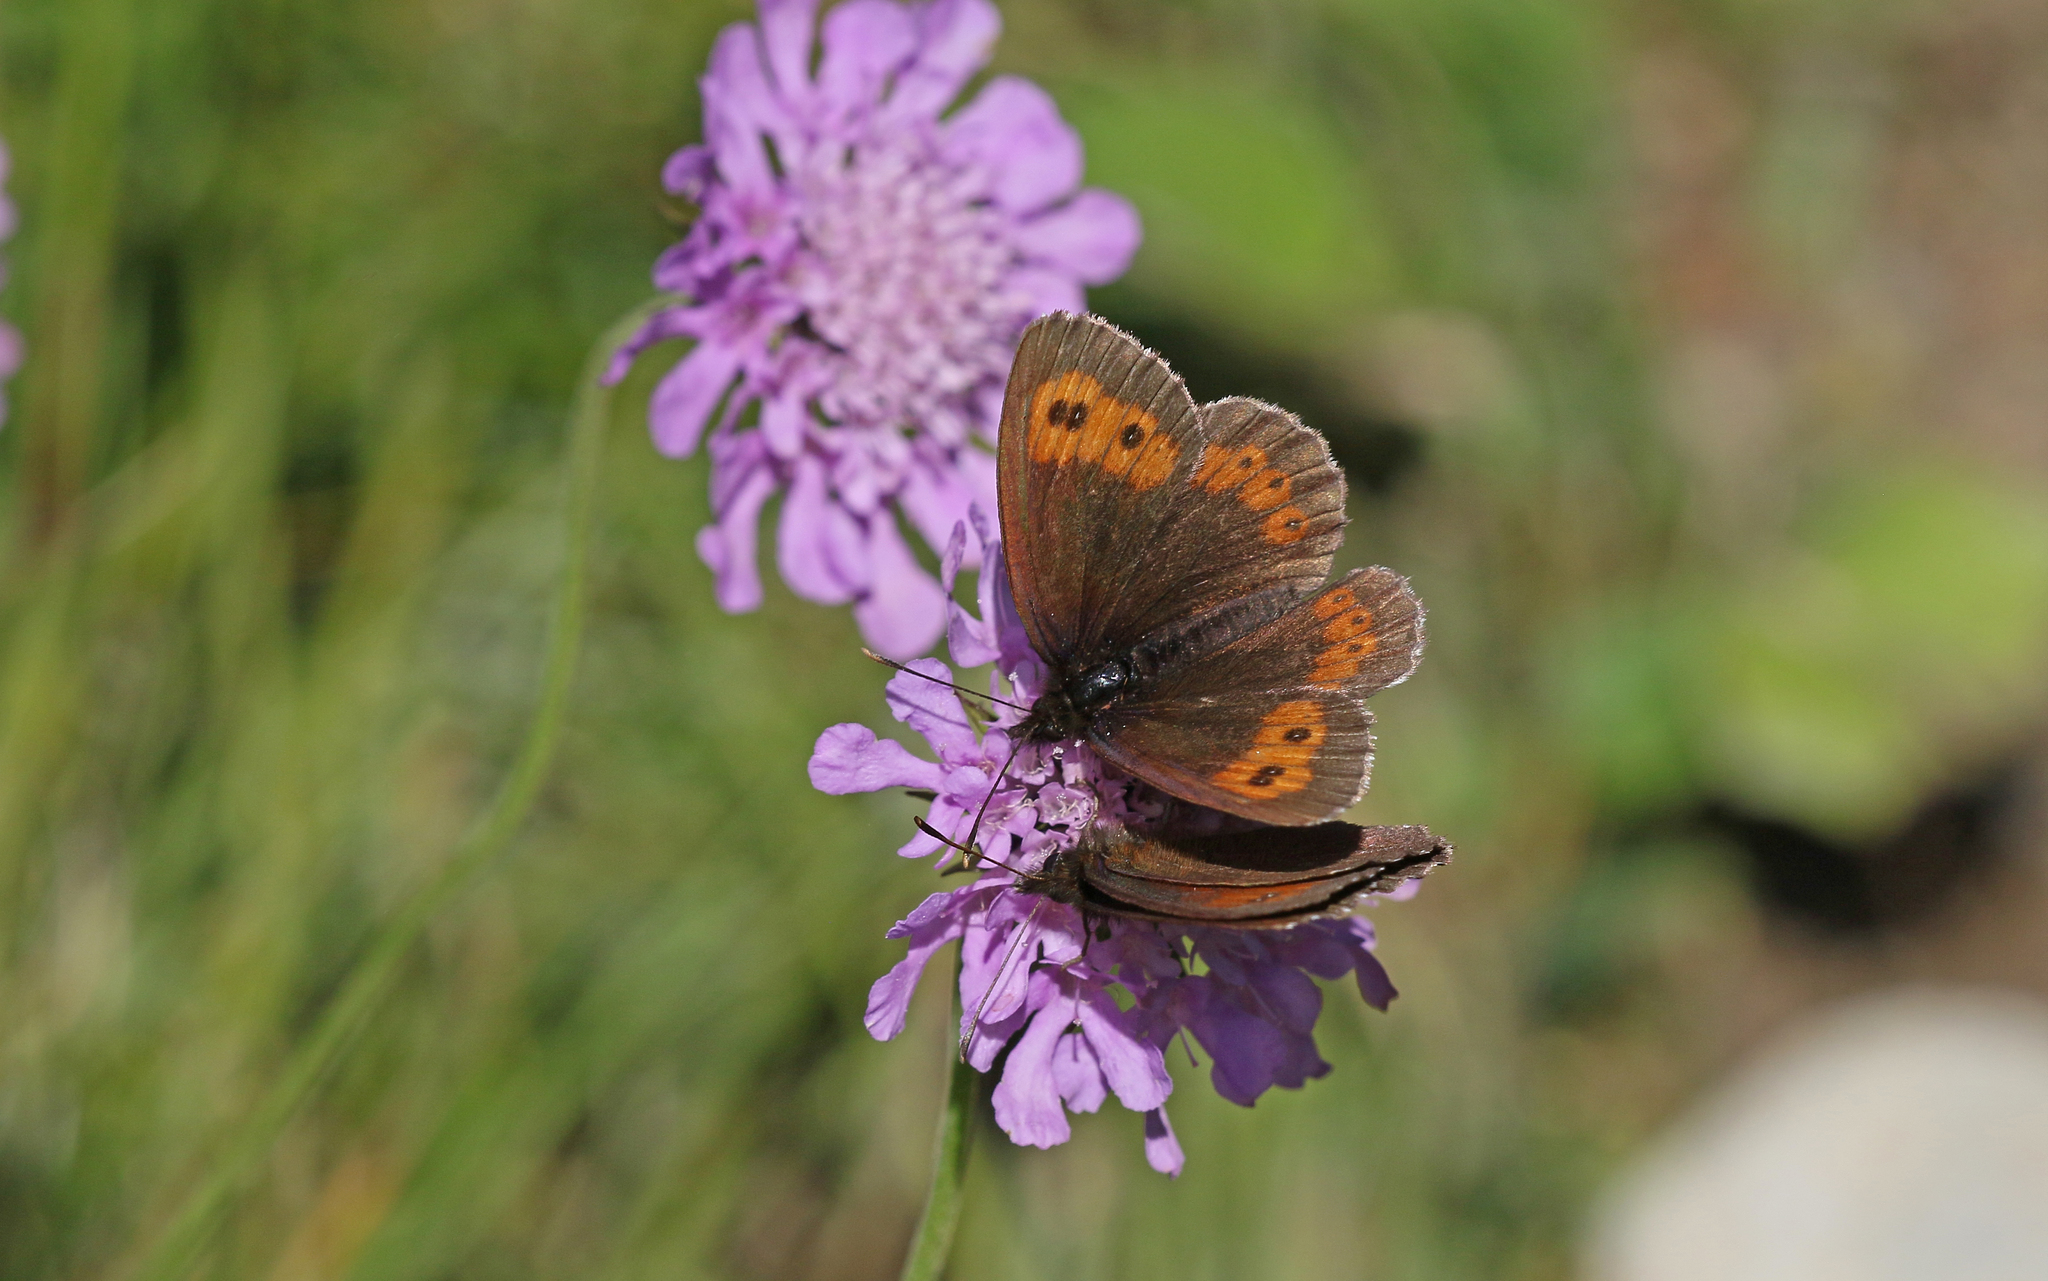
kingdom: Animalia
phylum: Arthropoda
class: Insecta
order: Lepidoptera
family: Nymphalidae
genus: Erebia
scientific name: Erebia euryale
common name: Large ringlet
